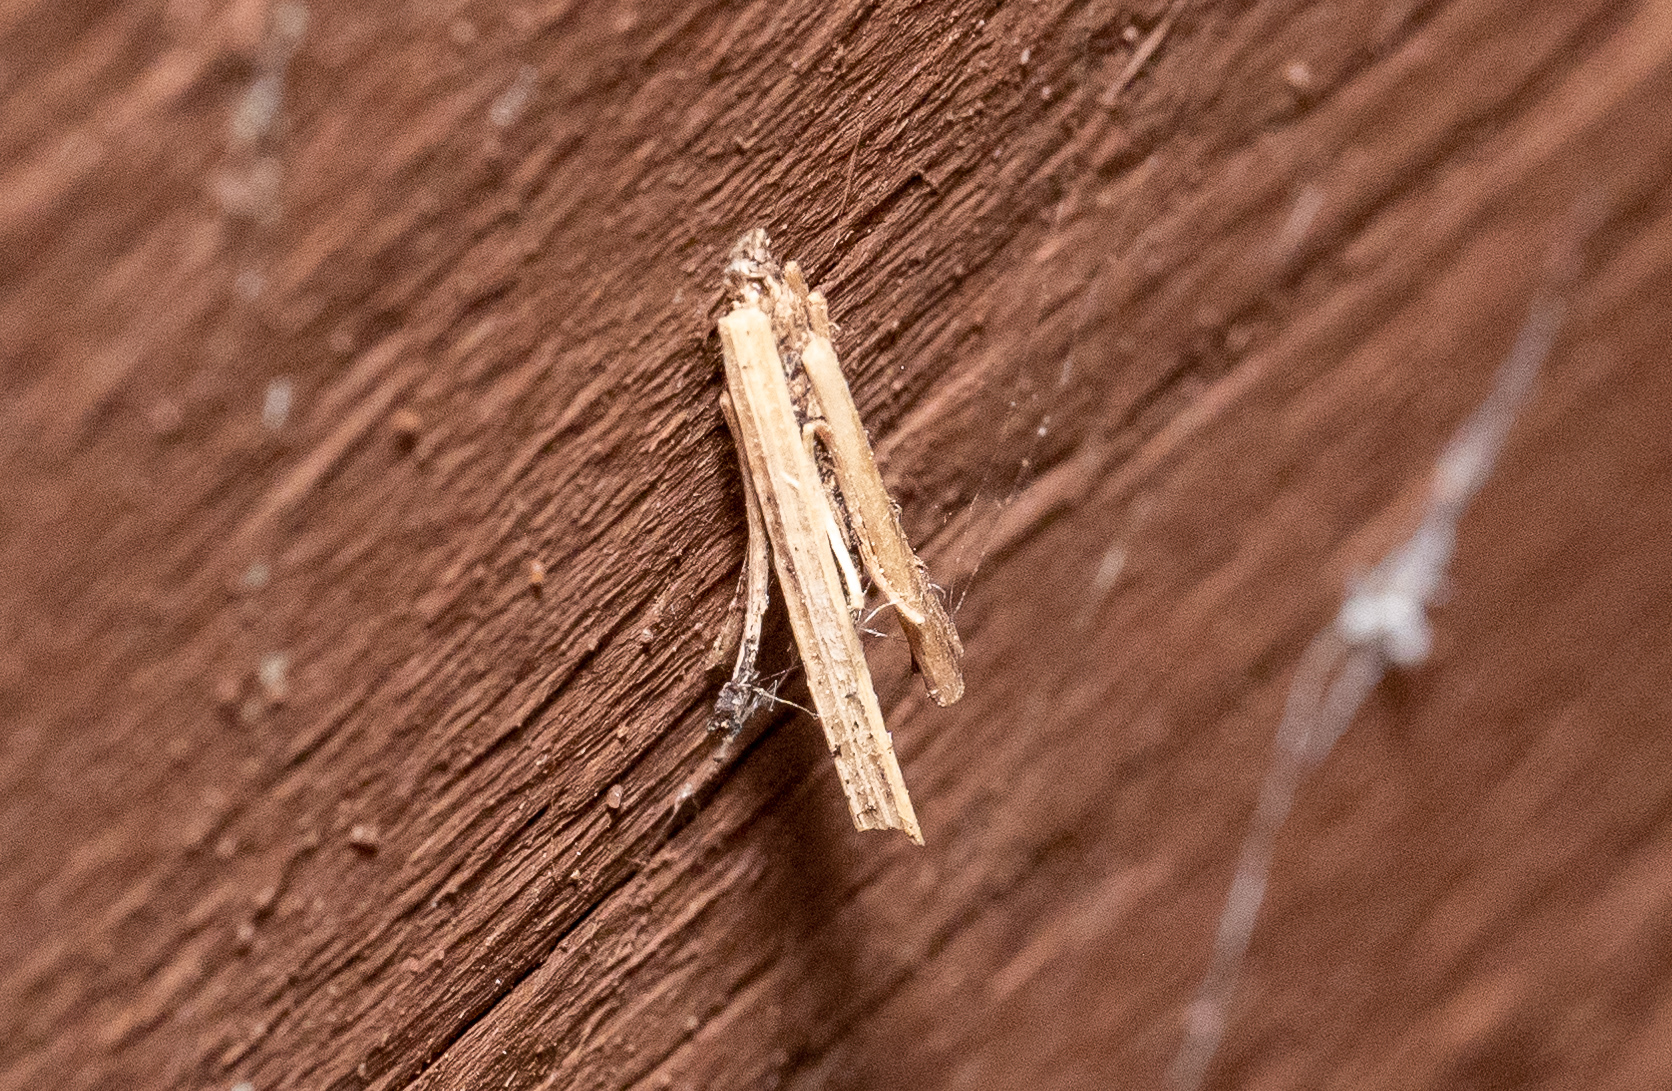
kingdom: Animalia
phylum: Arthropoda
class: Insecta
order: Lepidoptera
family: Psychidae
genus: Psyche
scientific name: Psyche casta
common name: Common sweep
